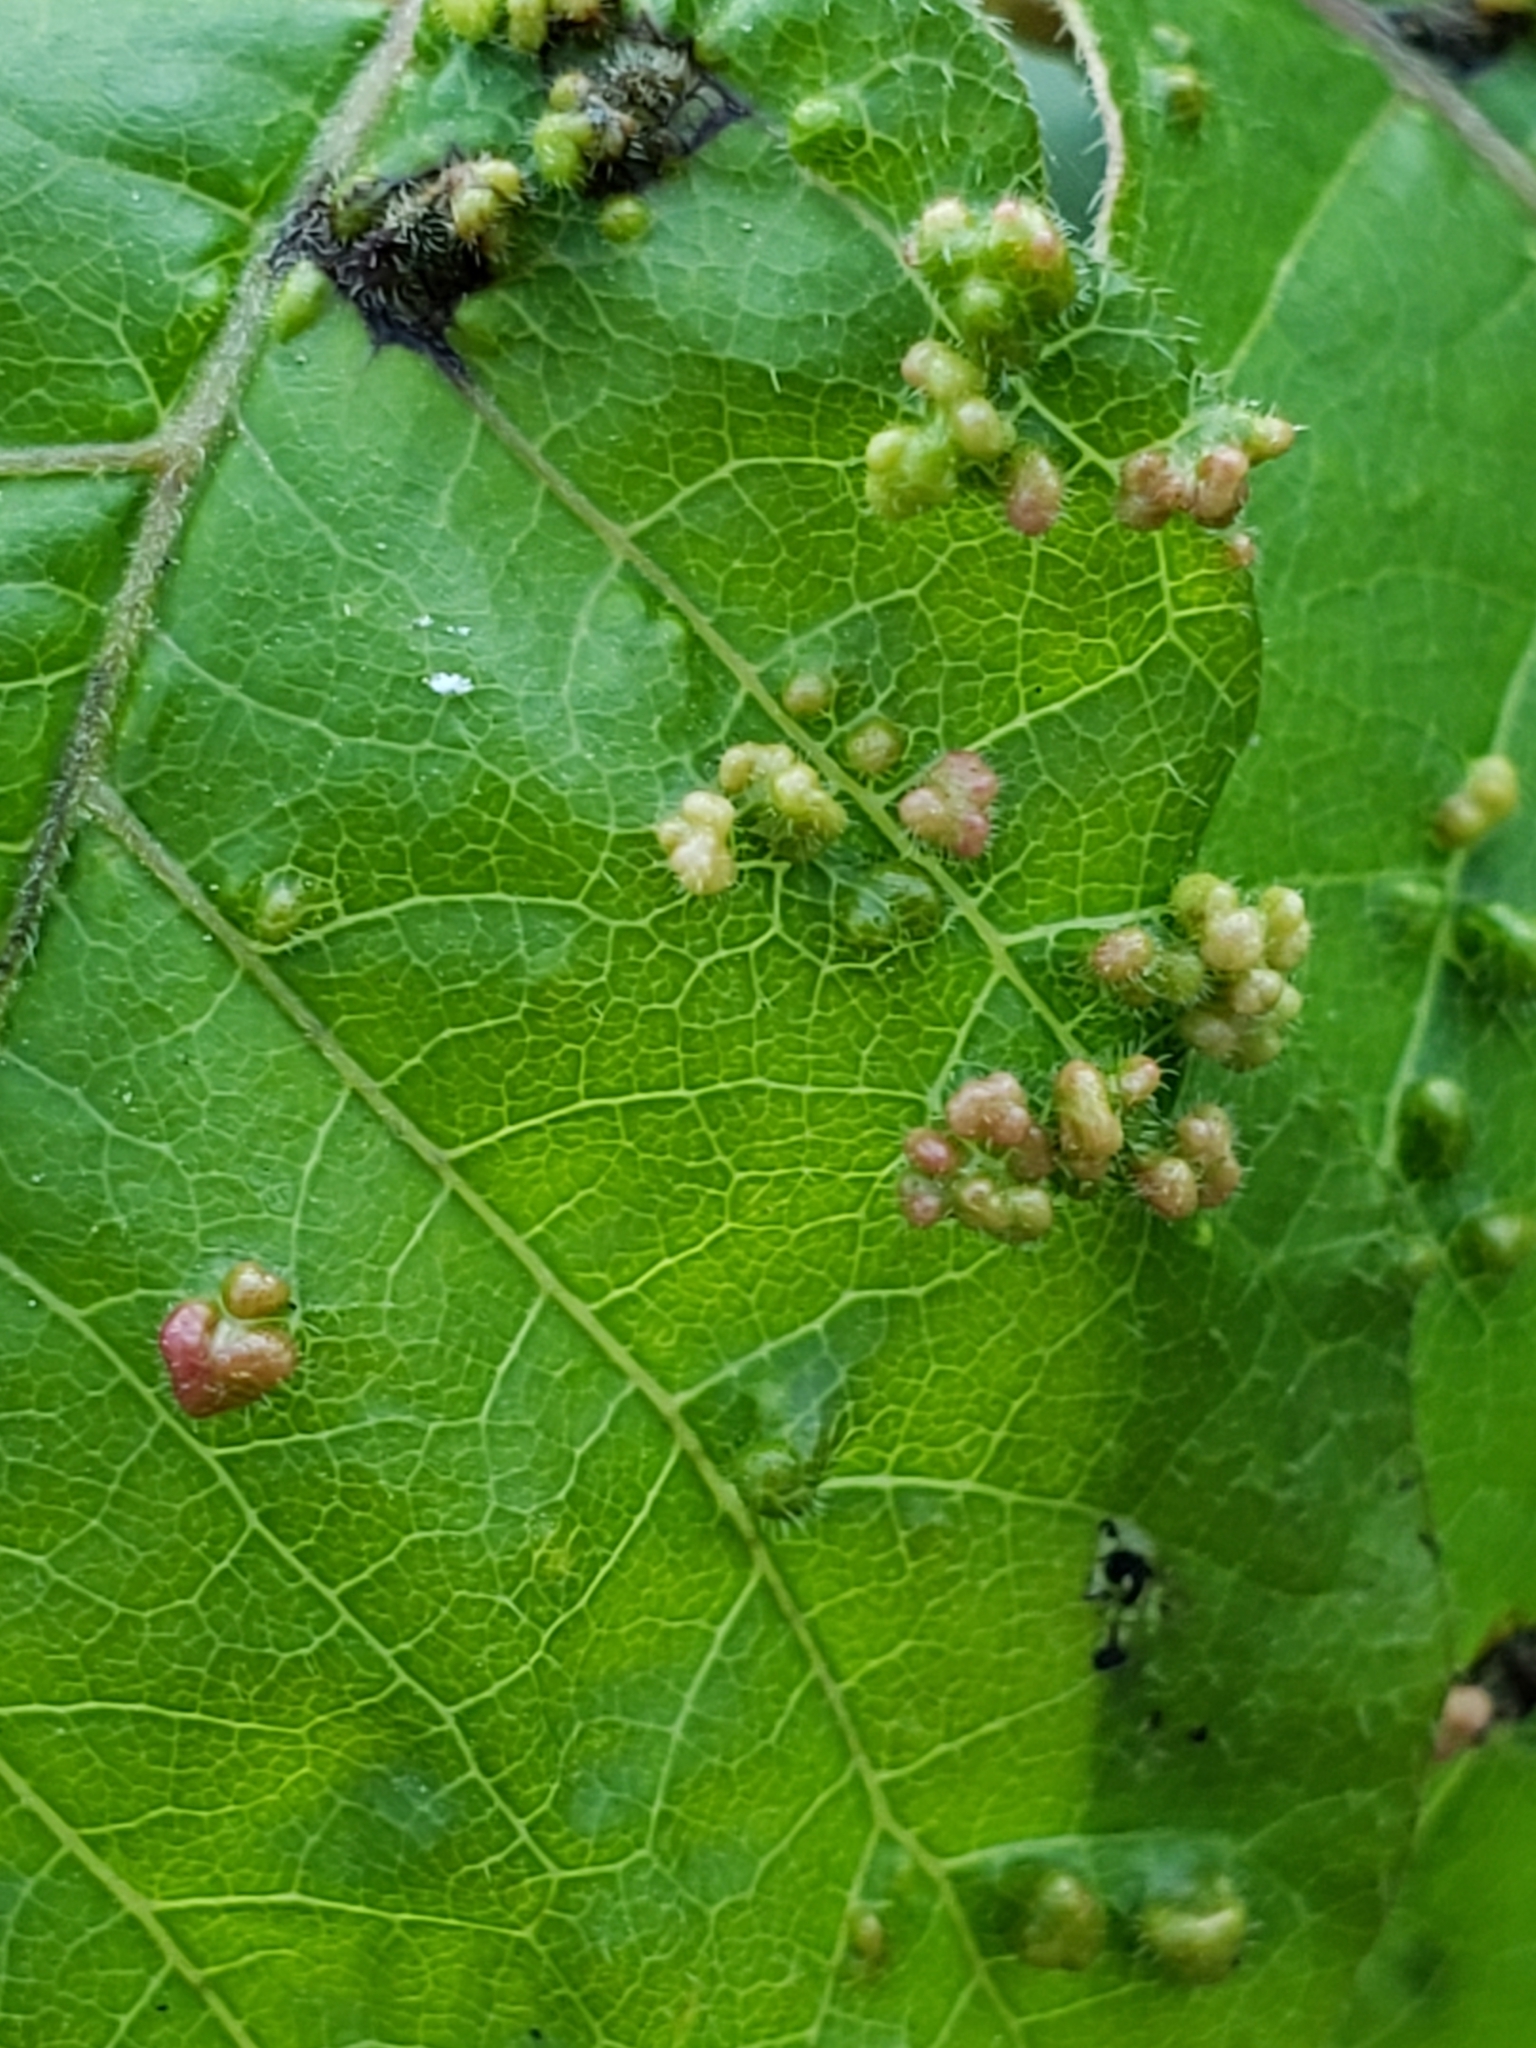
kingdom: Animalia
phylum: Arthropoda
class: Arachnida
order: Trombidiformes
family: Eriophyidae
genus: Aculops
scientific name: Aculops
